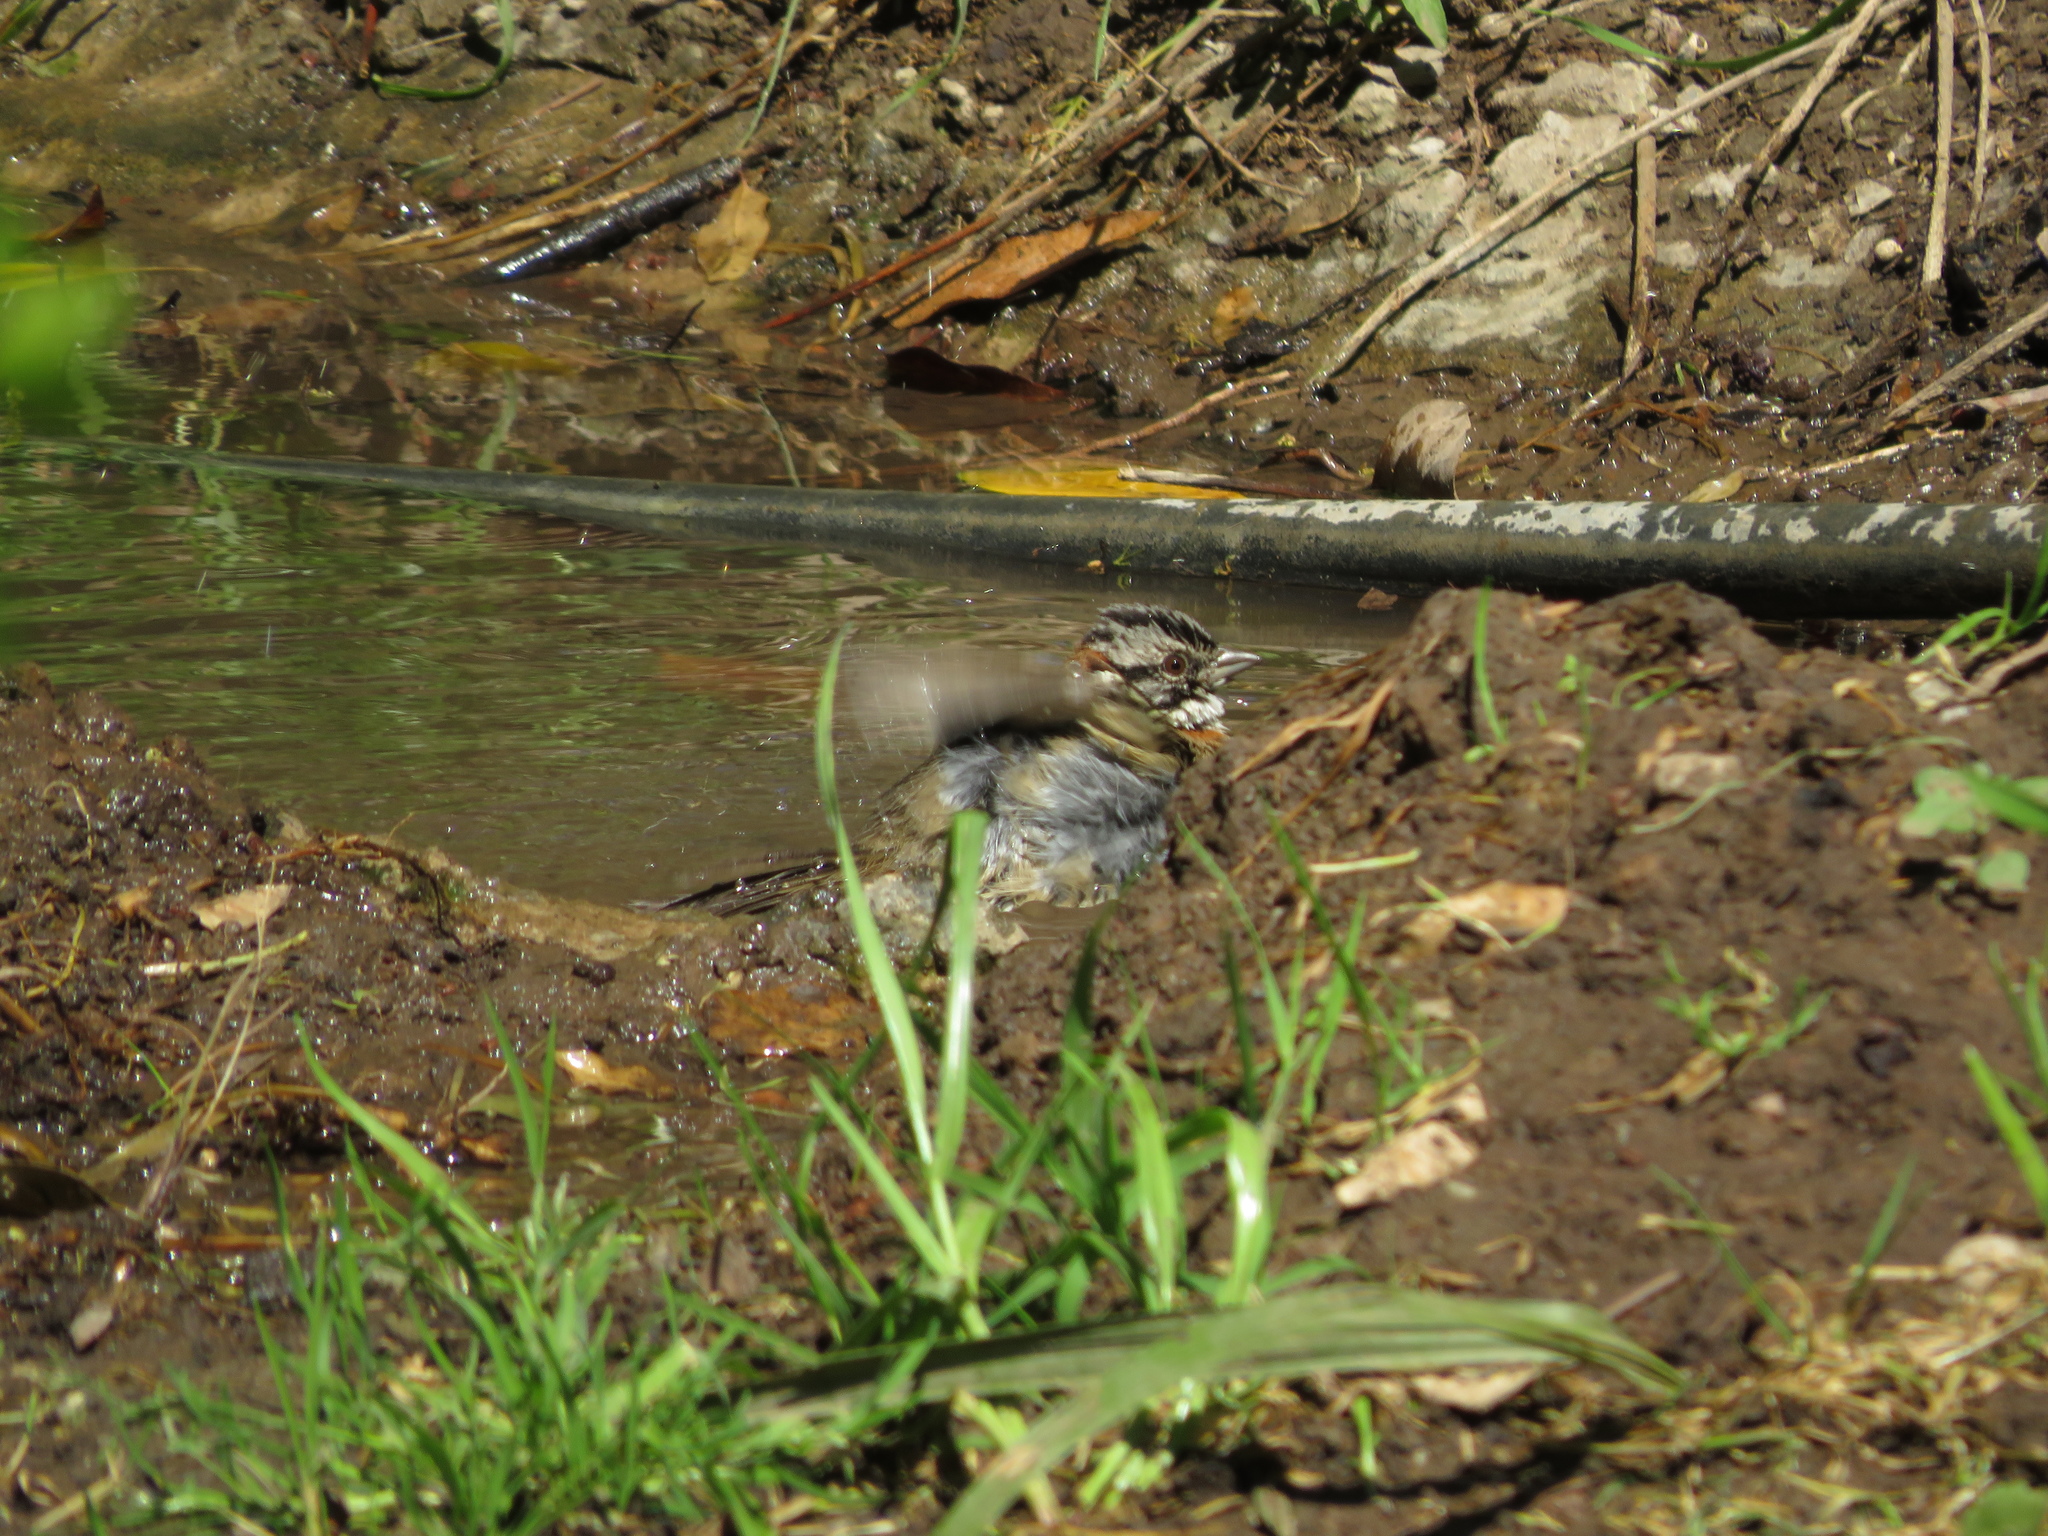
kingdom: Animalia
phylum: Chordata
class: Aves
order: Passeriformes
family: Passerellidae
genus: Zonotrichia
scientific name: Zonotrichia capensis
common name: Rufous-collared sparrow
